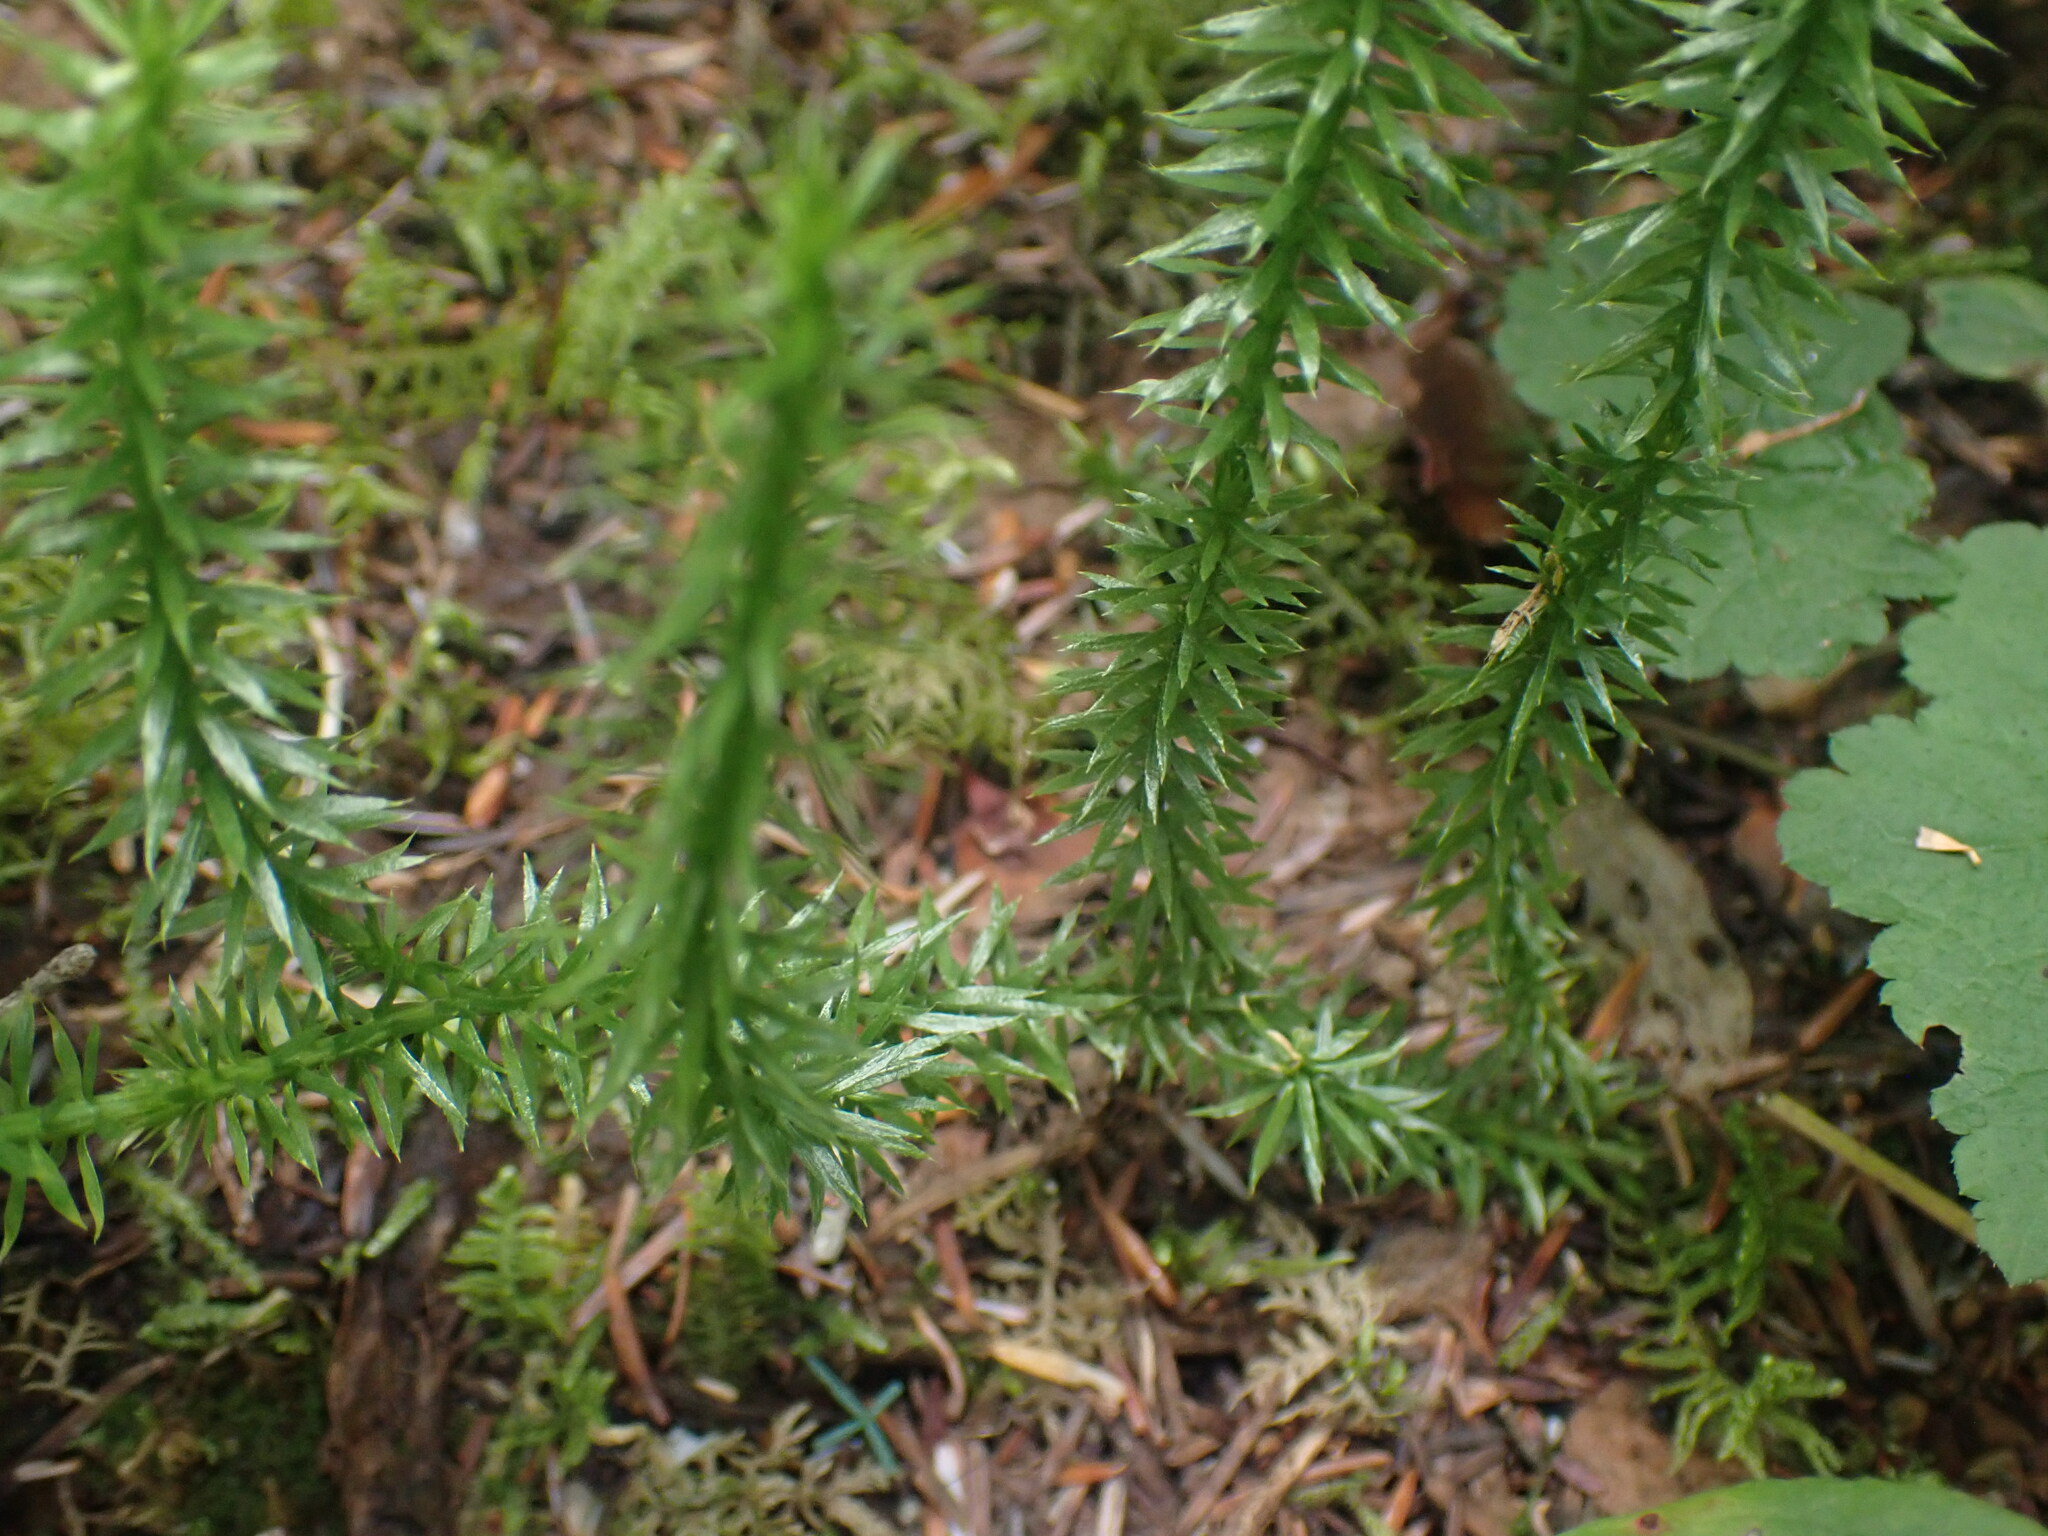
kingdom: Plantae
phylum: Tracheophyta
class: Lycopodiopsida
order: Lycopodiales
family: Lycopodiaceae
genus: Spinulum
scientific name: Spinulum annotinum
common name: Interrupted club-moss
